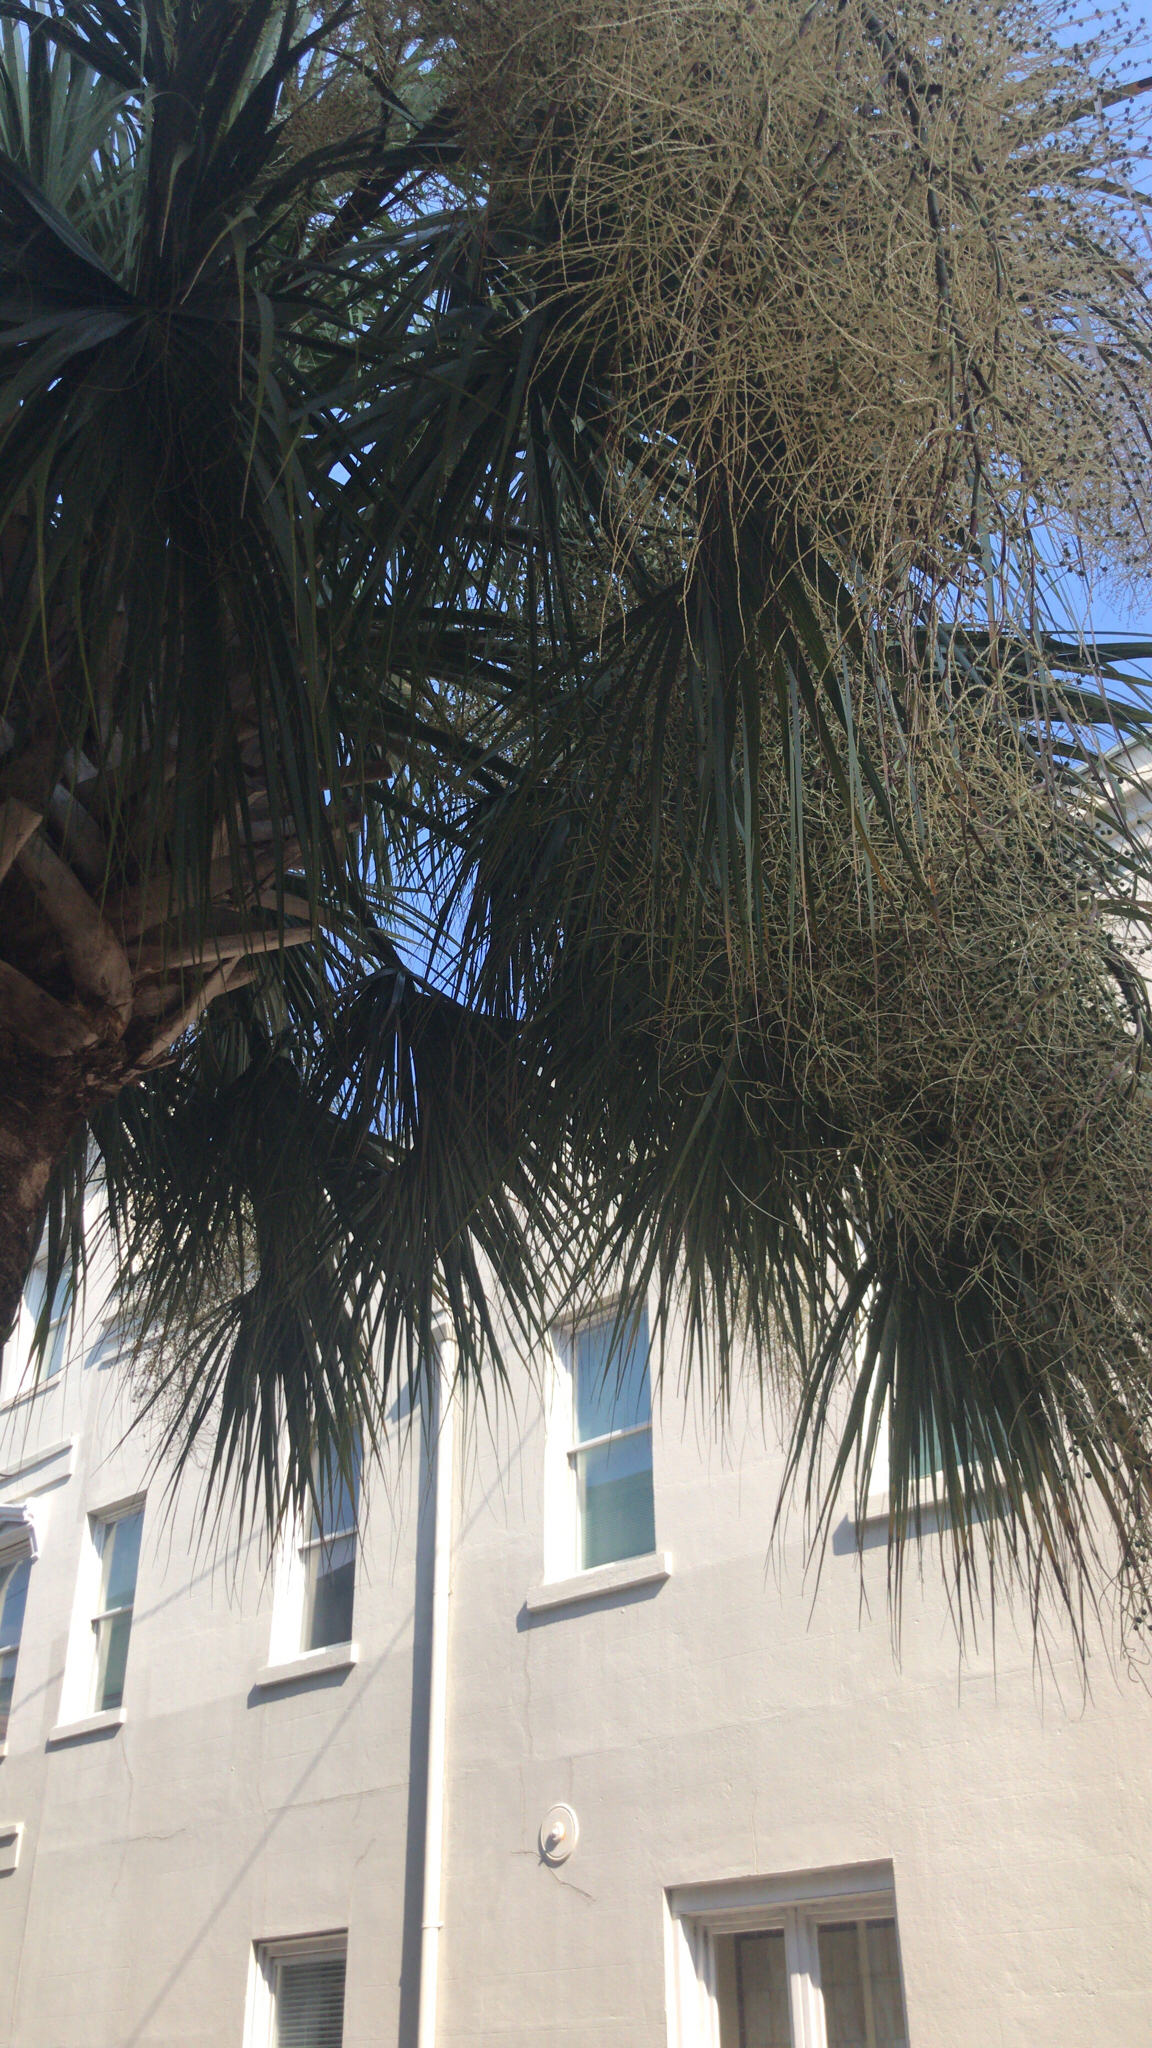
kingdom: Plantae
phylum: Tracheophyta
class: Liliopsida
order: Arecales
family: Arecaceae
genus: Sabal
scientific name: Sabal palmetto
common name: Blue palmetto
